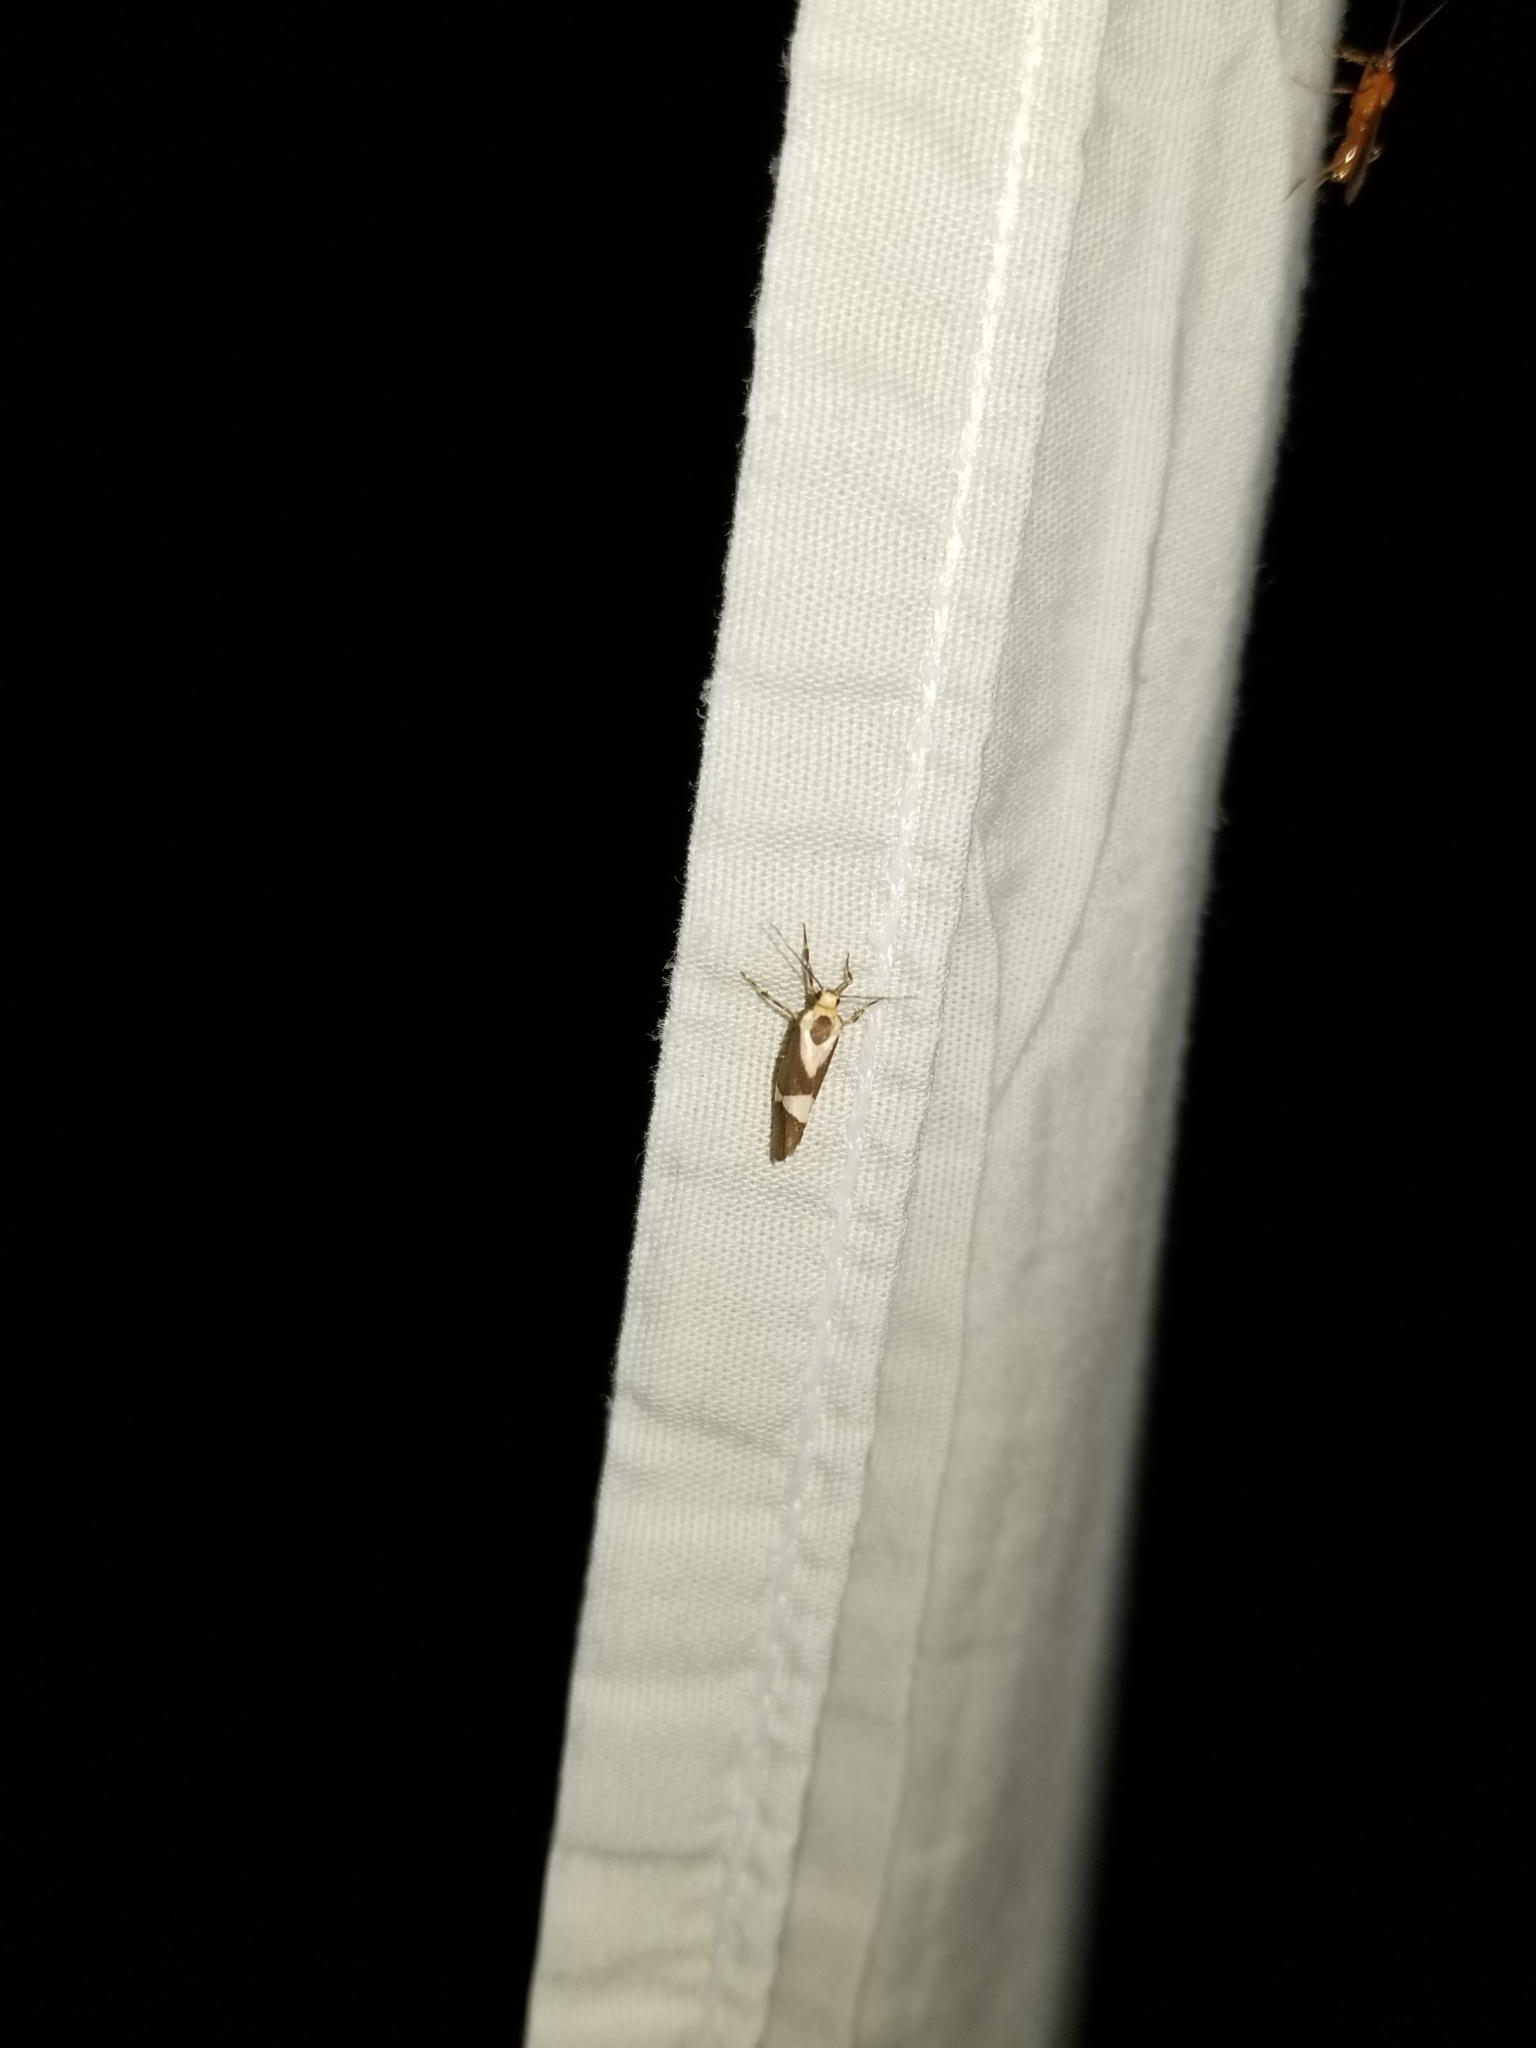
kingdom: Animalia
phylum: Arthropoda
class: Insecta
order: Lepidoptera
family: Erebidae
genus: Cisthene
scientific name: Cisthene subrufa
